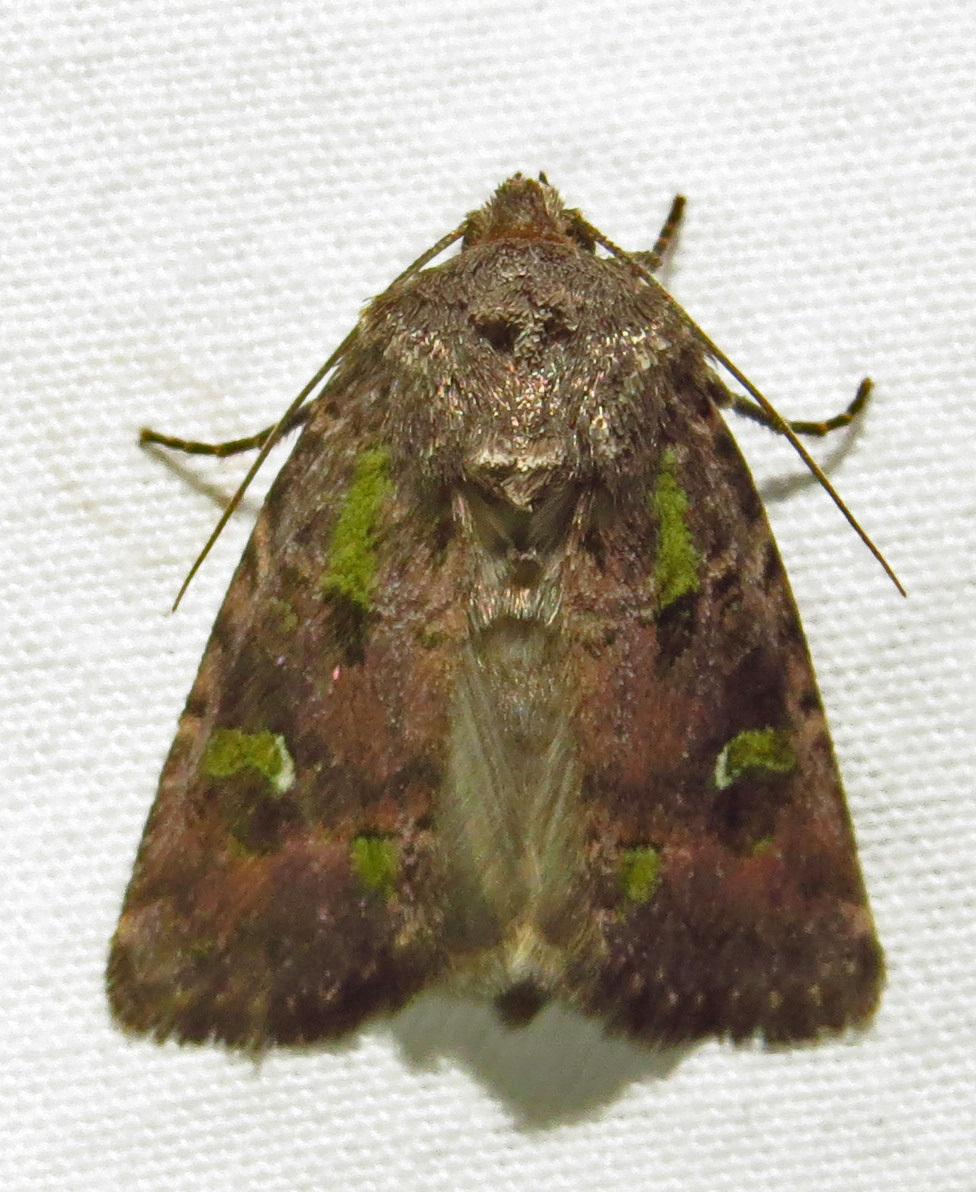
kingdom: Animalia
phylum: Arthropoda
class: Insecta
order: Lepidoptera
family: Noctuidae
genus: Lacinipolia
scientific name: Lacinipolia renigera
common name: Kidney-spotted minor
